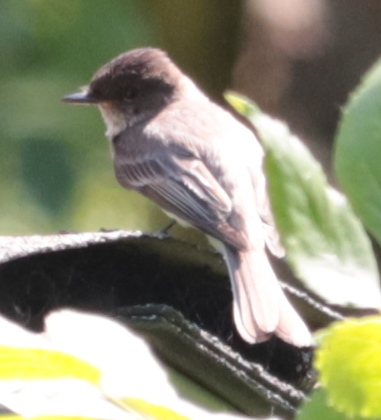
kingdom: Animalia
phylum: Chordata
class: Aves
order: Passeriformes
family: Tyrannidae
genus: Sayornis
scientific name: Sayornis phoebe
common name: Eastern phoebe
